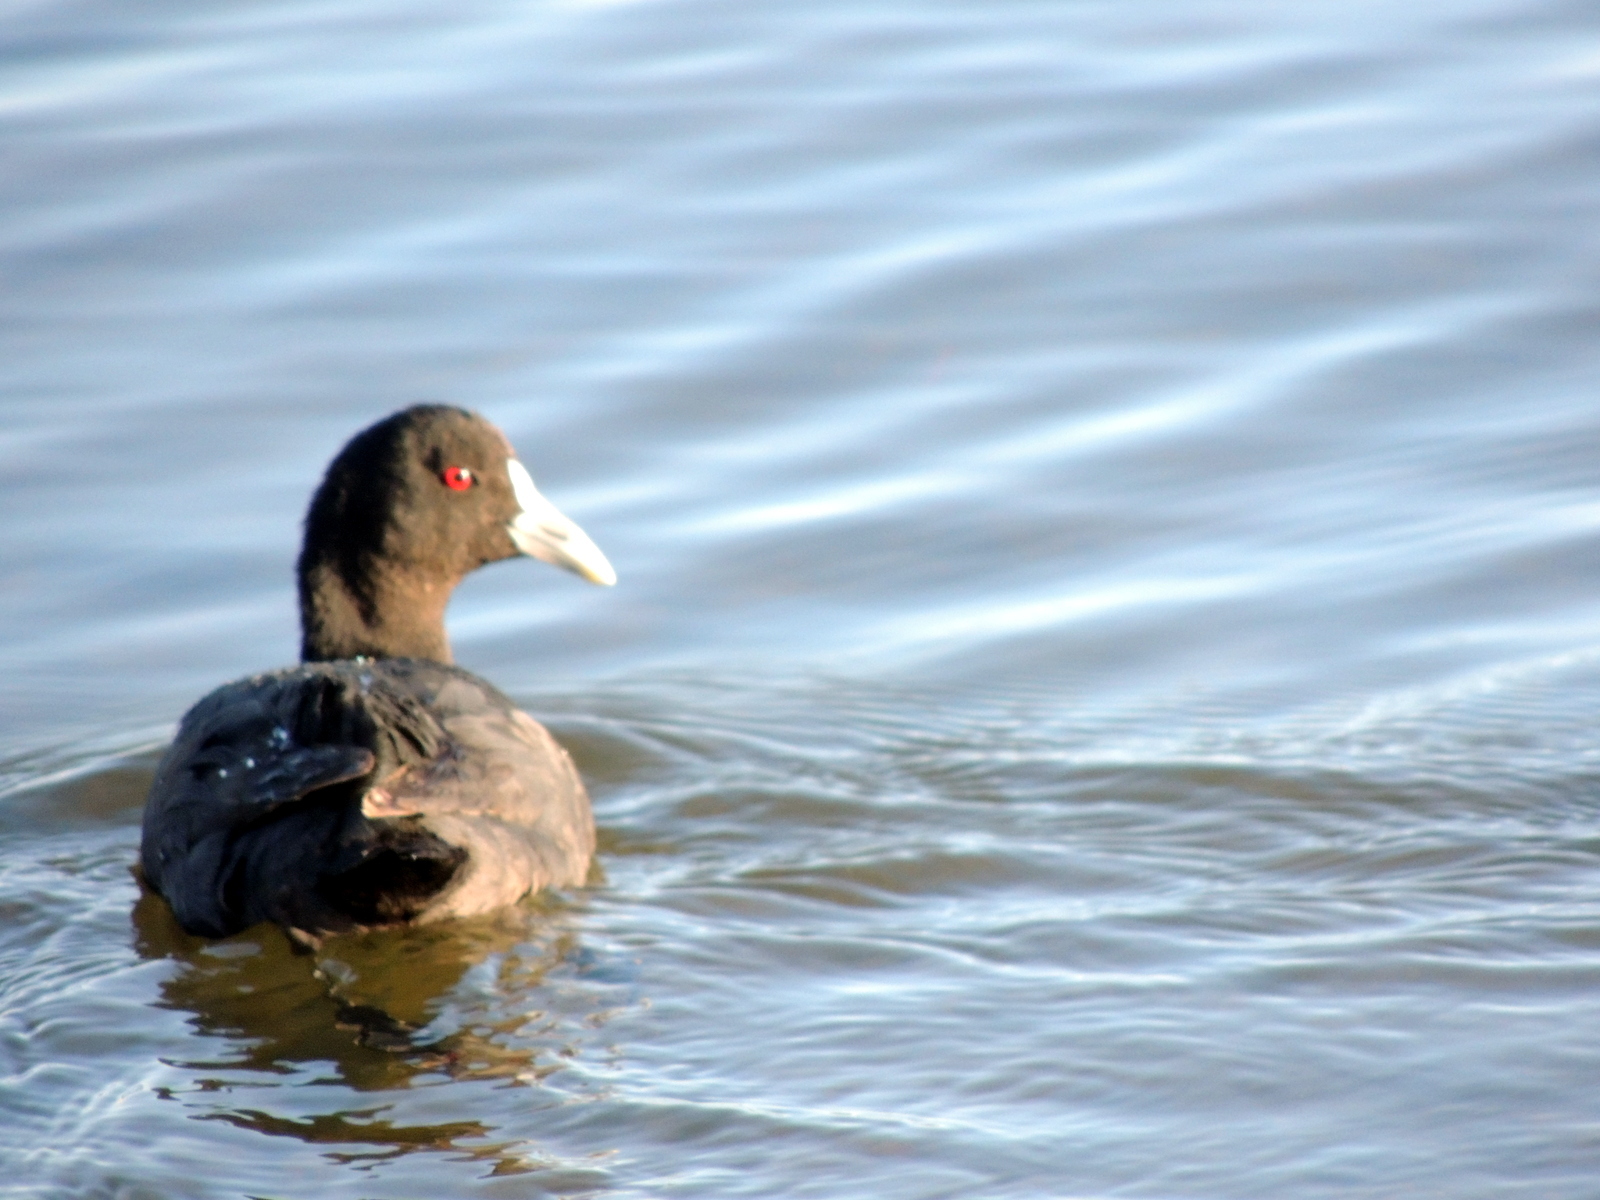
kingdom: Animalia
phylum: Chordata
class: Aves
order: Gruiformes
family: Rallidae
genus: Fulica
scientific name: Fulica atra
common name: Eurasian coot
